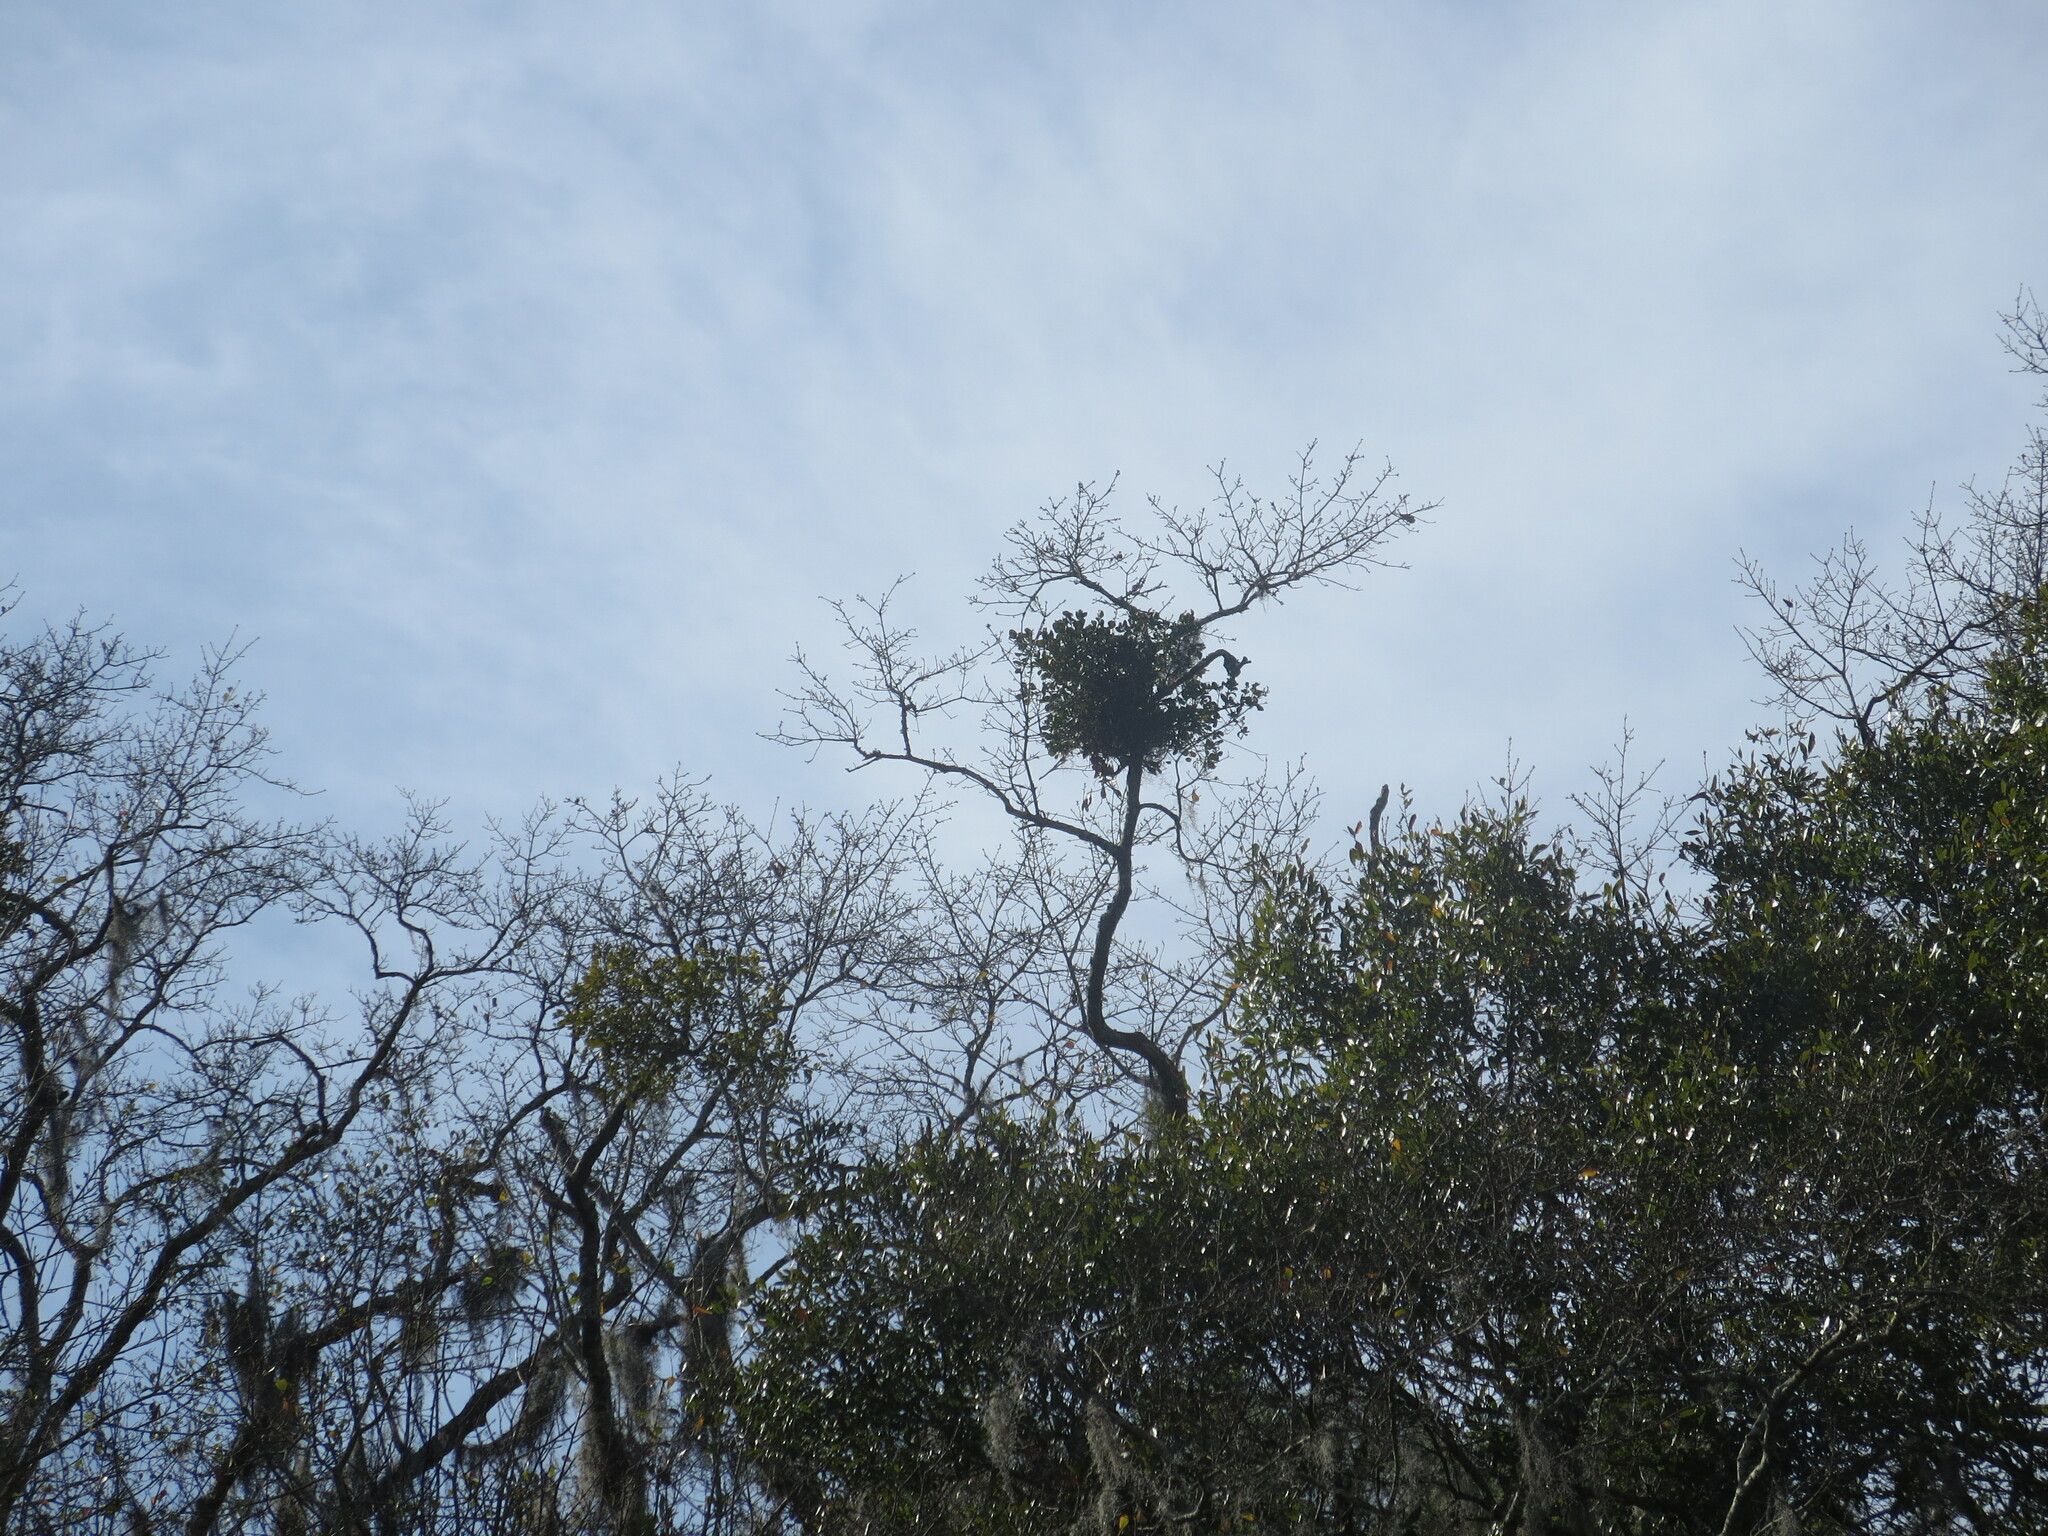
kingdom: Plantae
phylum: Tracheophyta
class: Magnoliopsida
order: Santalales
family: Viscaceae
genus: Phoradendron
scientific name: Phoradendron leucarpum
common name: Pacific mistletoe
